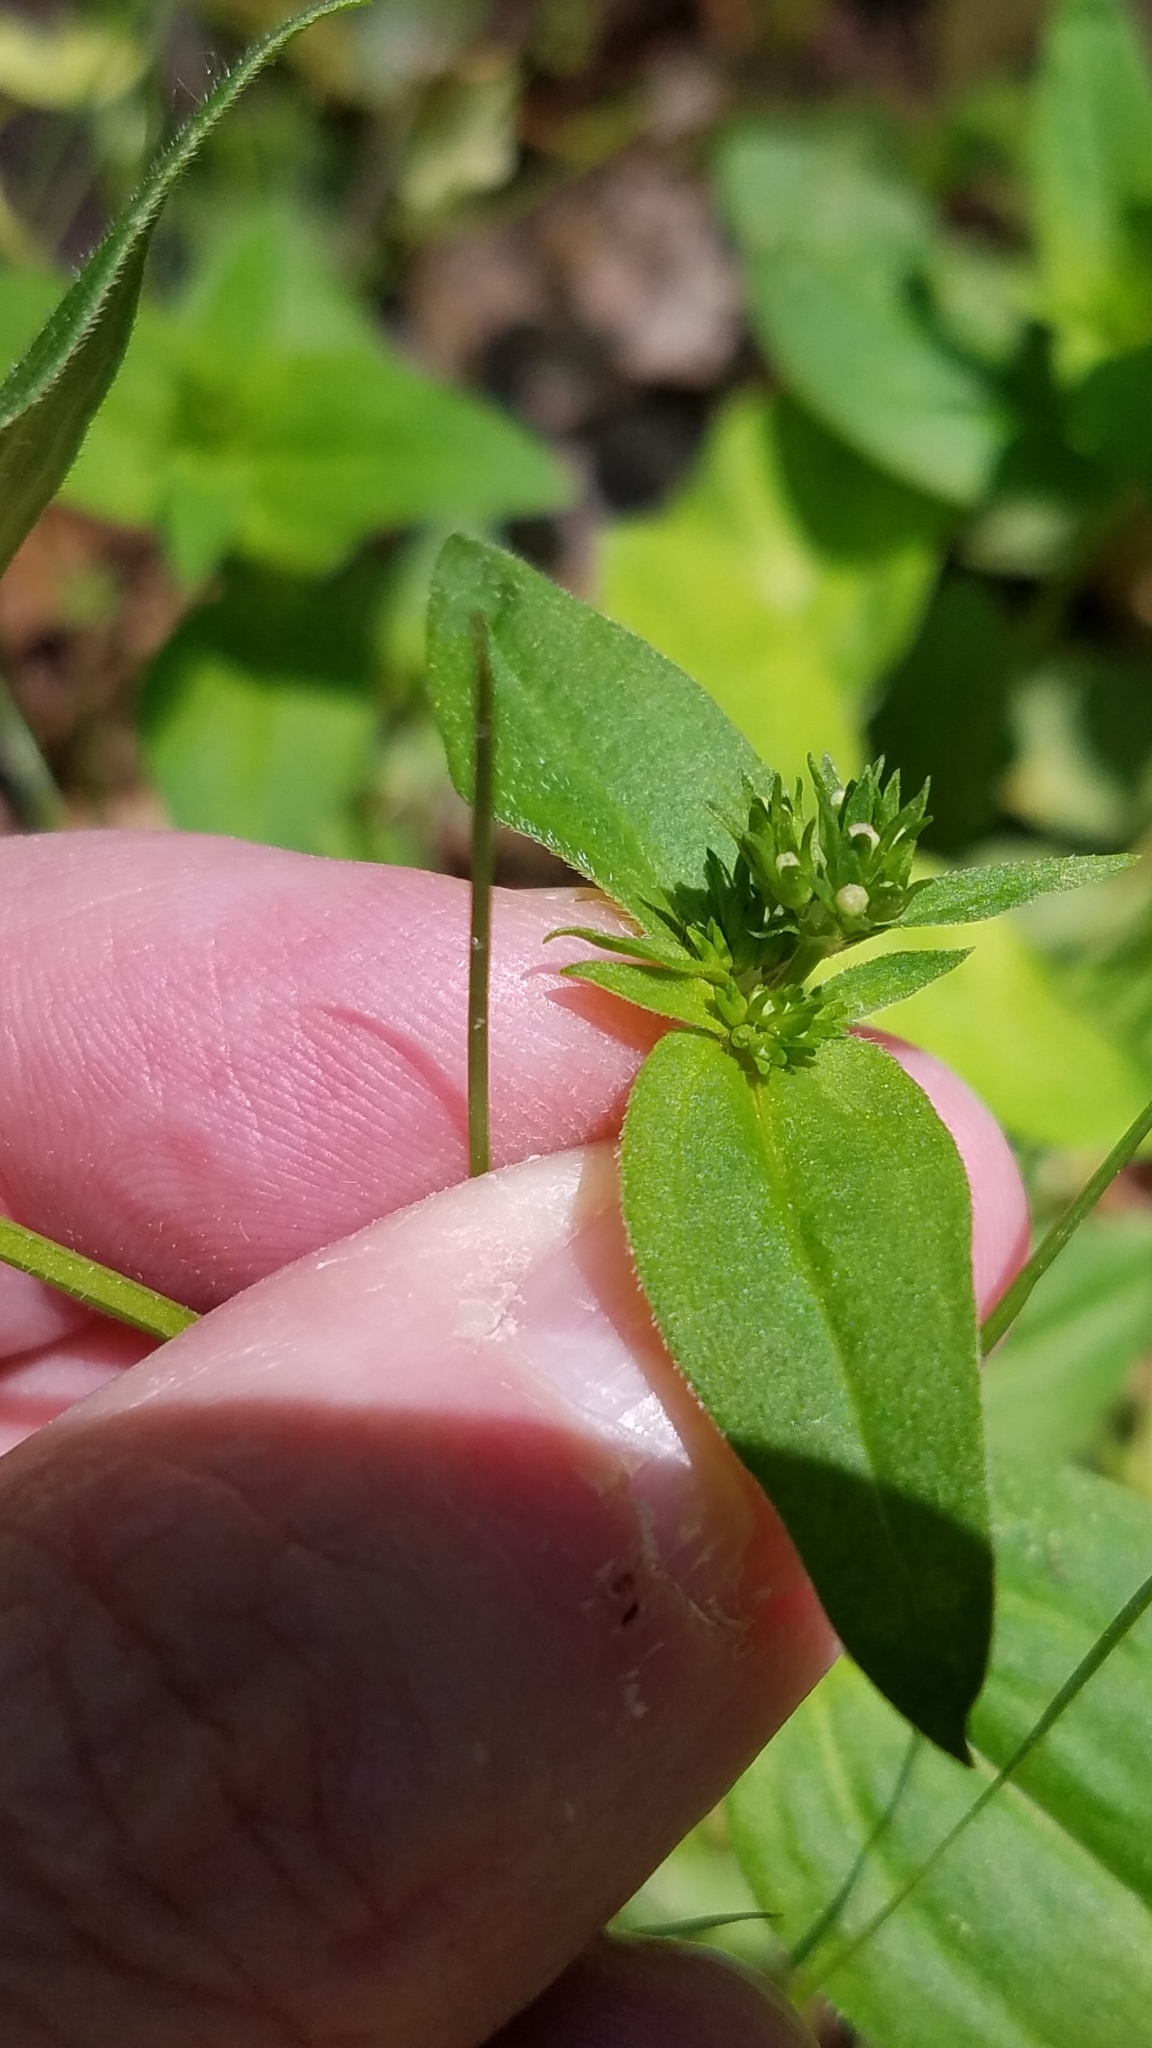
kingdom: Plantae
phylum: Tracheophyta
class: Magnoliopsida
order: Gentianales
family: Rubiaceae
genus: Houstonia
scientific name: Houstonia purpurea
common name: Summer bluet
